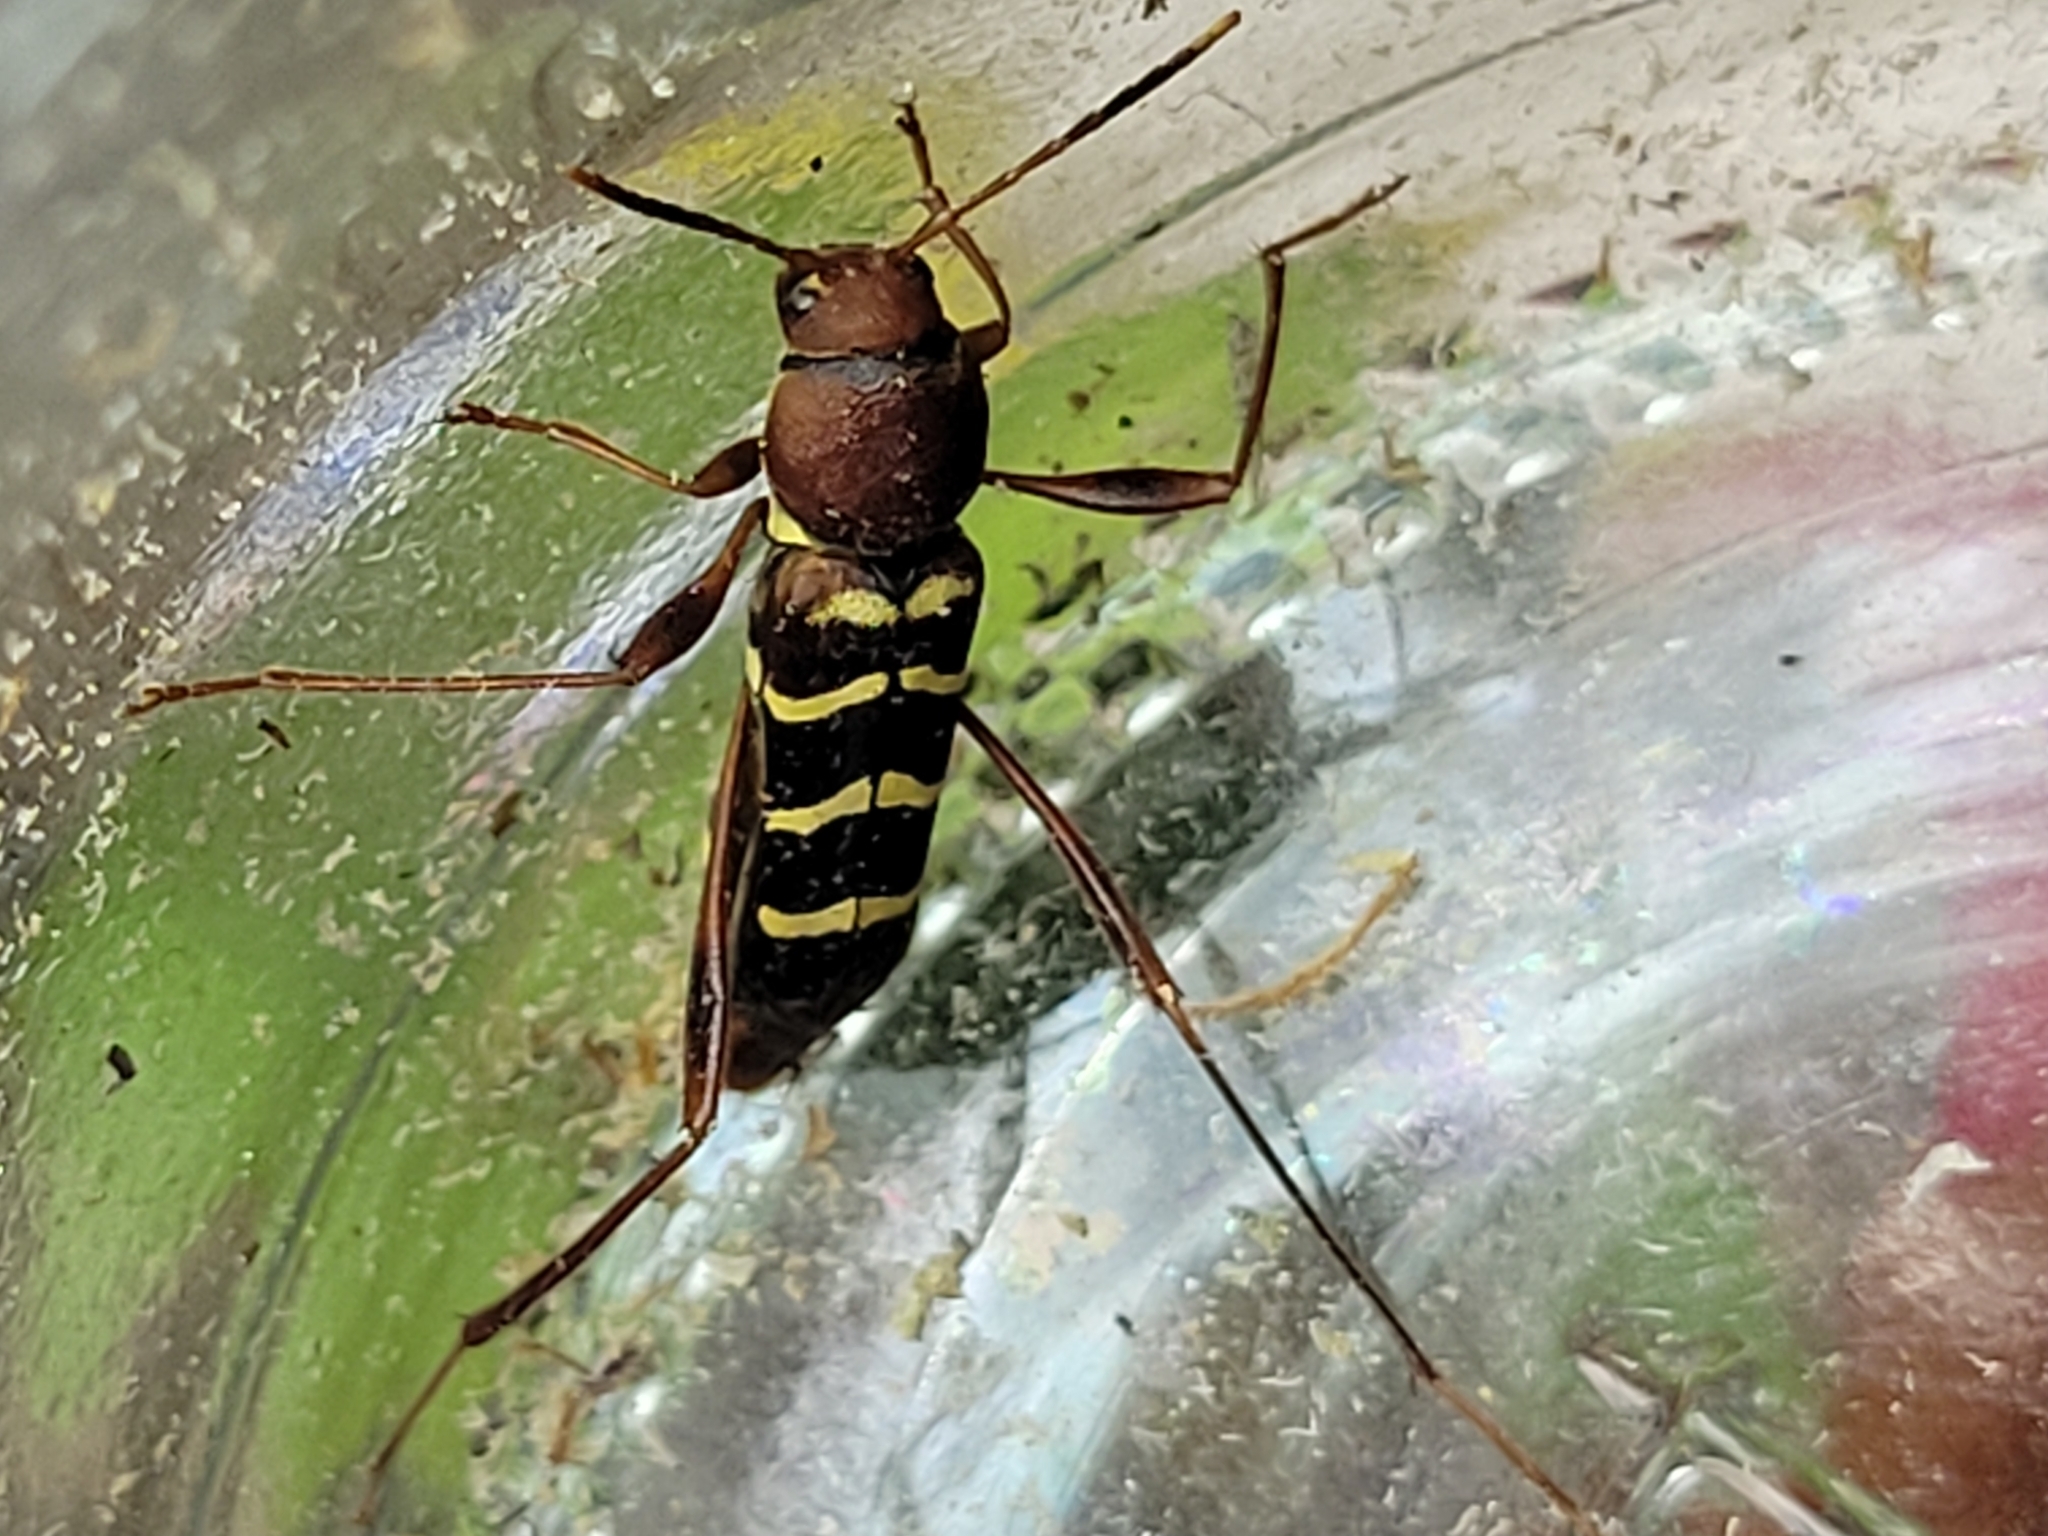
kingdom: Animalia
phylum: Arthropoda
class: Insecta
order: Coleoptera
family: Cerambycidae
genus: Neoclytus
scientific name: Neoclytus acuminatus
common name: Read-headed ash borer
